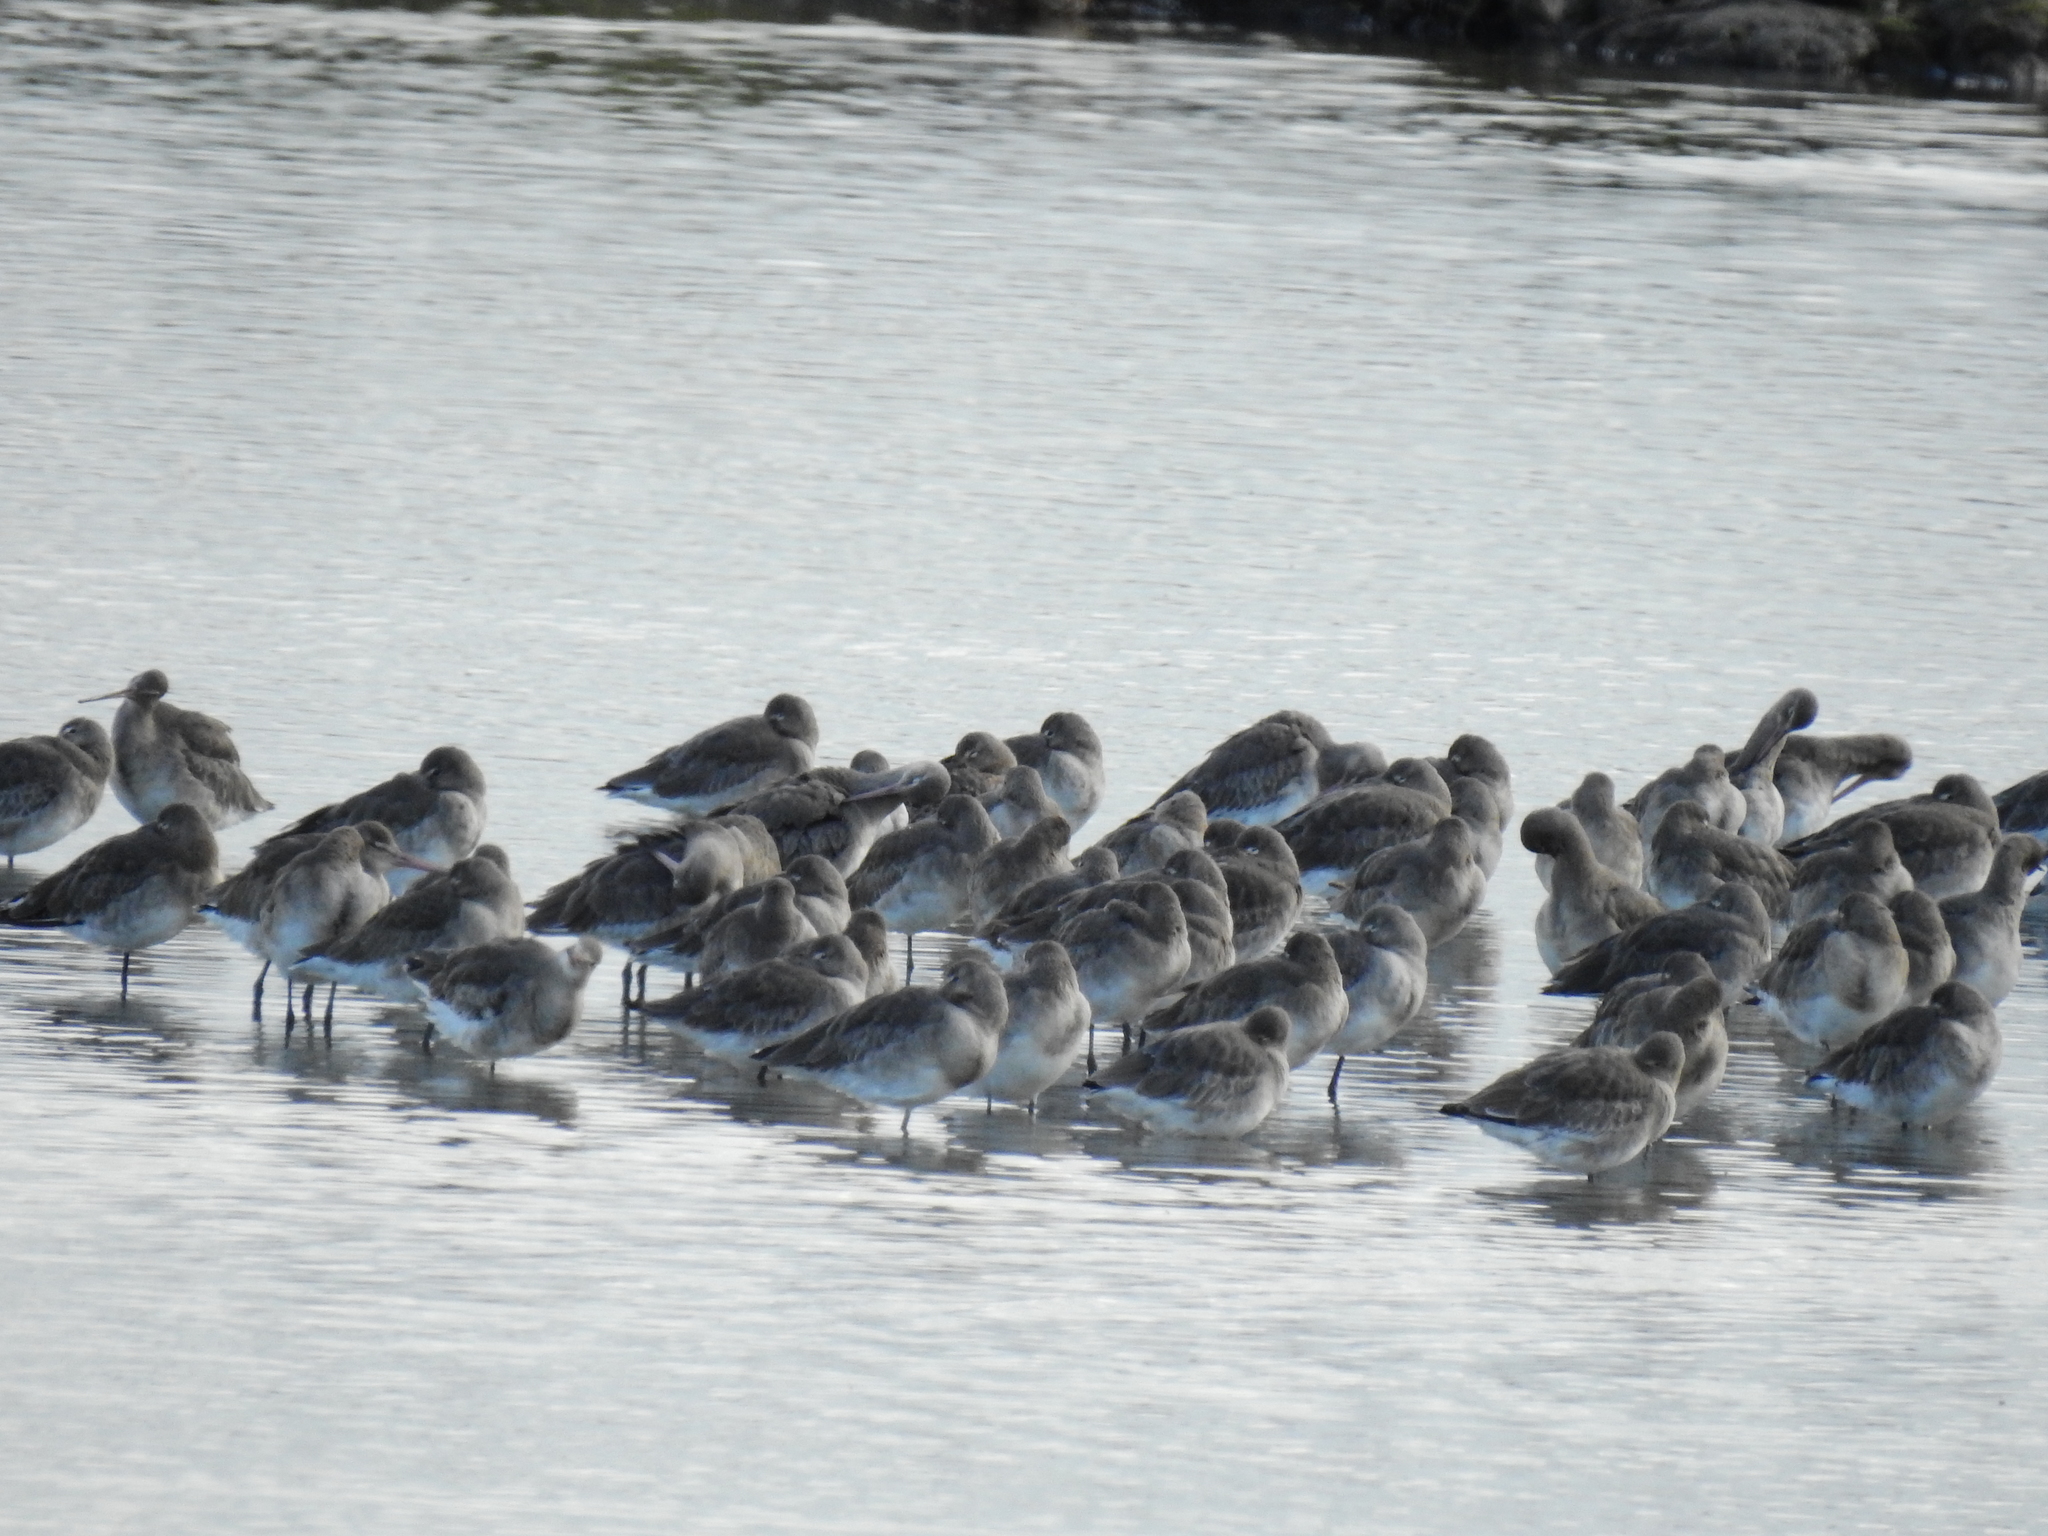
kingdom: Animalia
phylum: Chordata
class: Aves
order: Charadriiformes
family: Scolopacidae
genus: Limosa
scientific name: Limosa limosa
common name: Black-tailed godwit
